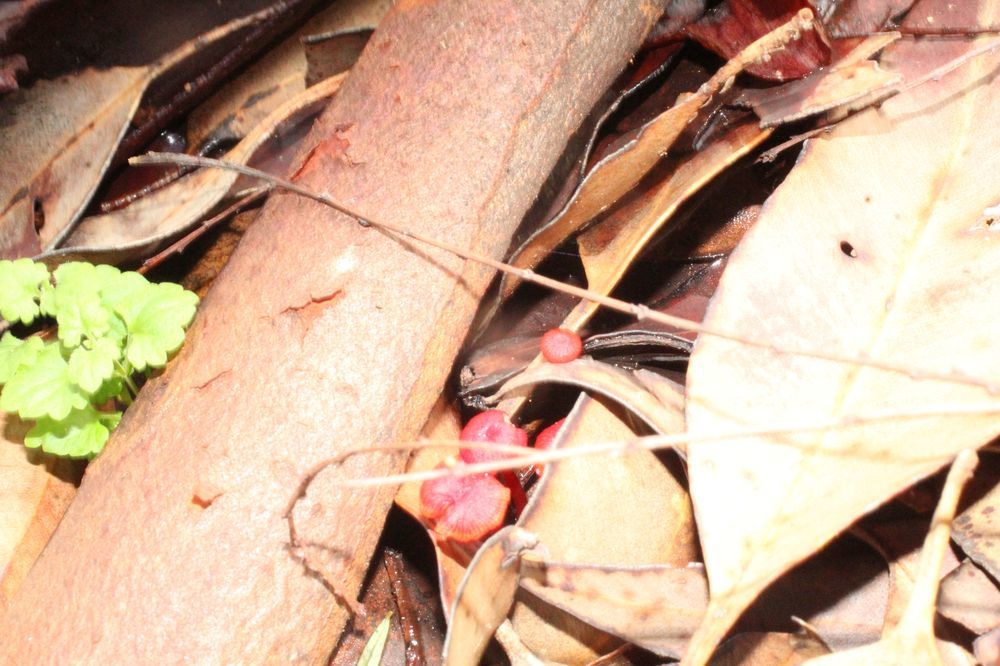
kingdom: Fungi
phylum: Basidiomycota
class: Agaricomycetes
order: Agaricales
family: Mycenaceae
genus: Cruentomycena
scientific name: Cruentomycena viscidocruenta
